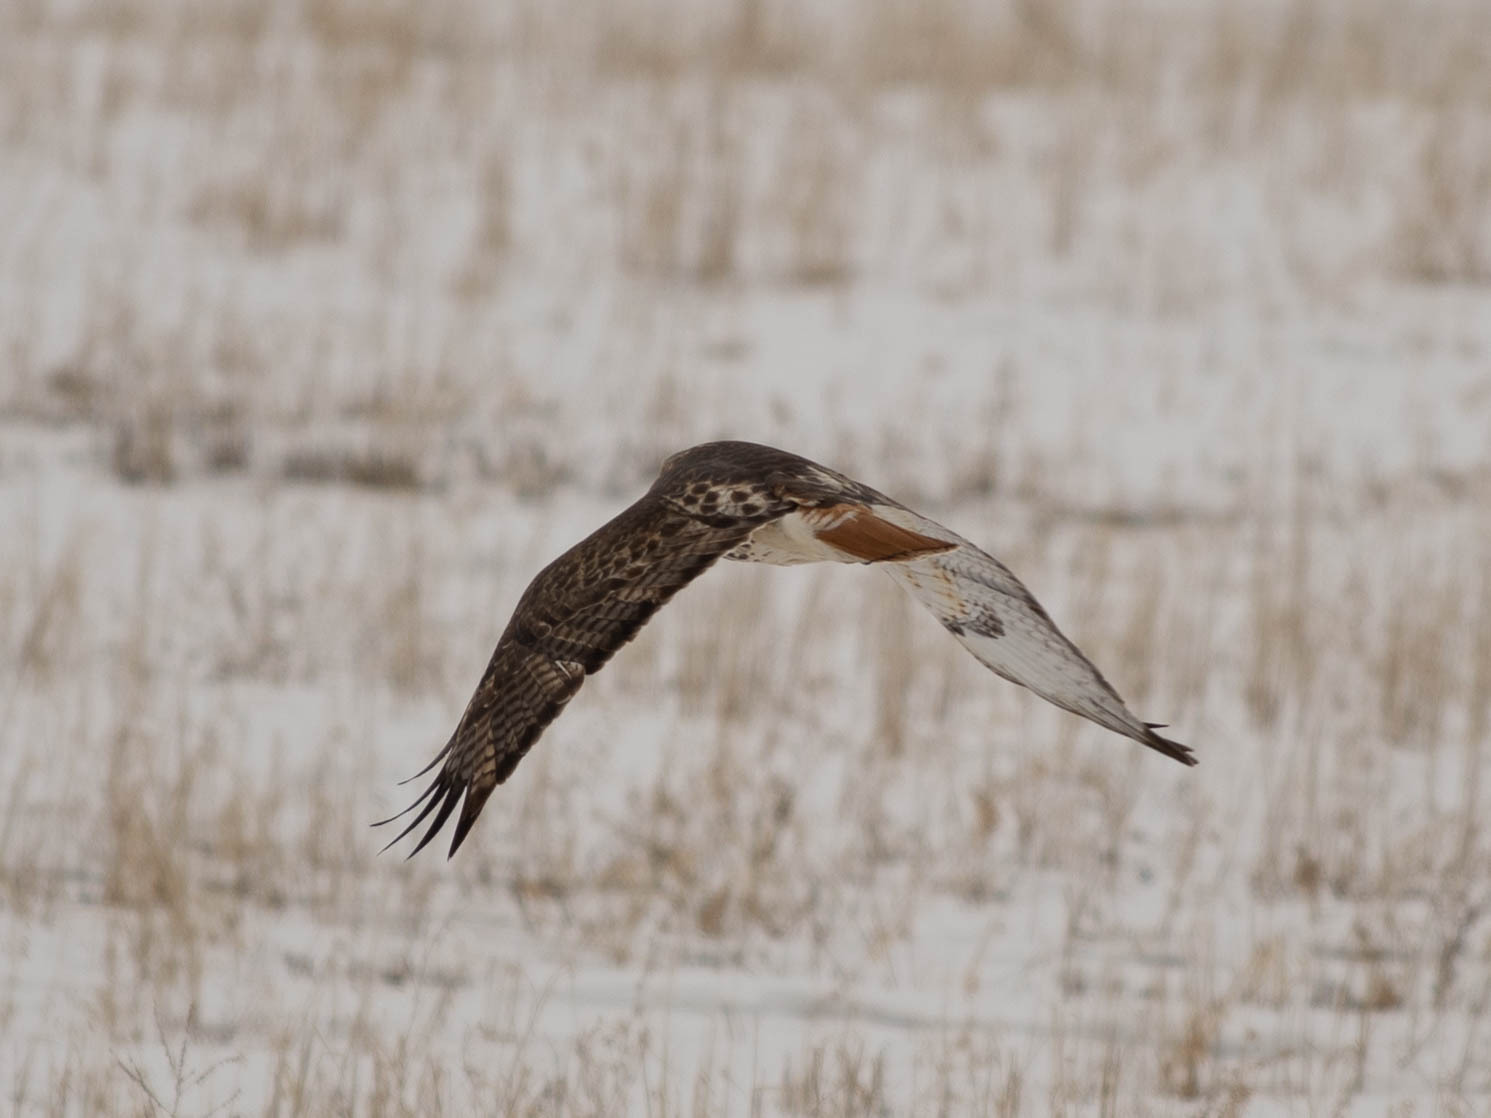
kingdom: Animalia
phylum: Chordata
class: Aves
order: Accipitriformes
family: Accipitridae
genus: Buteo
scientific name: Buteo jamaicensis
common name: Red-tailed hawk
